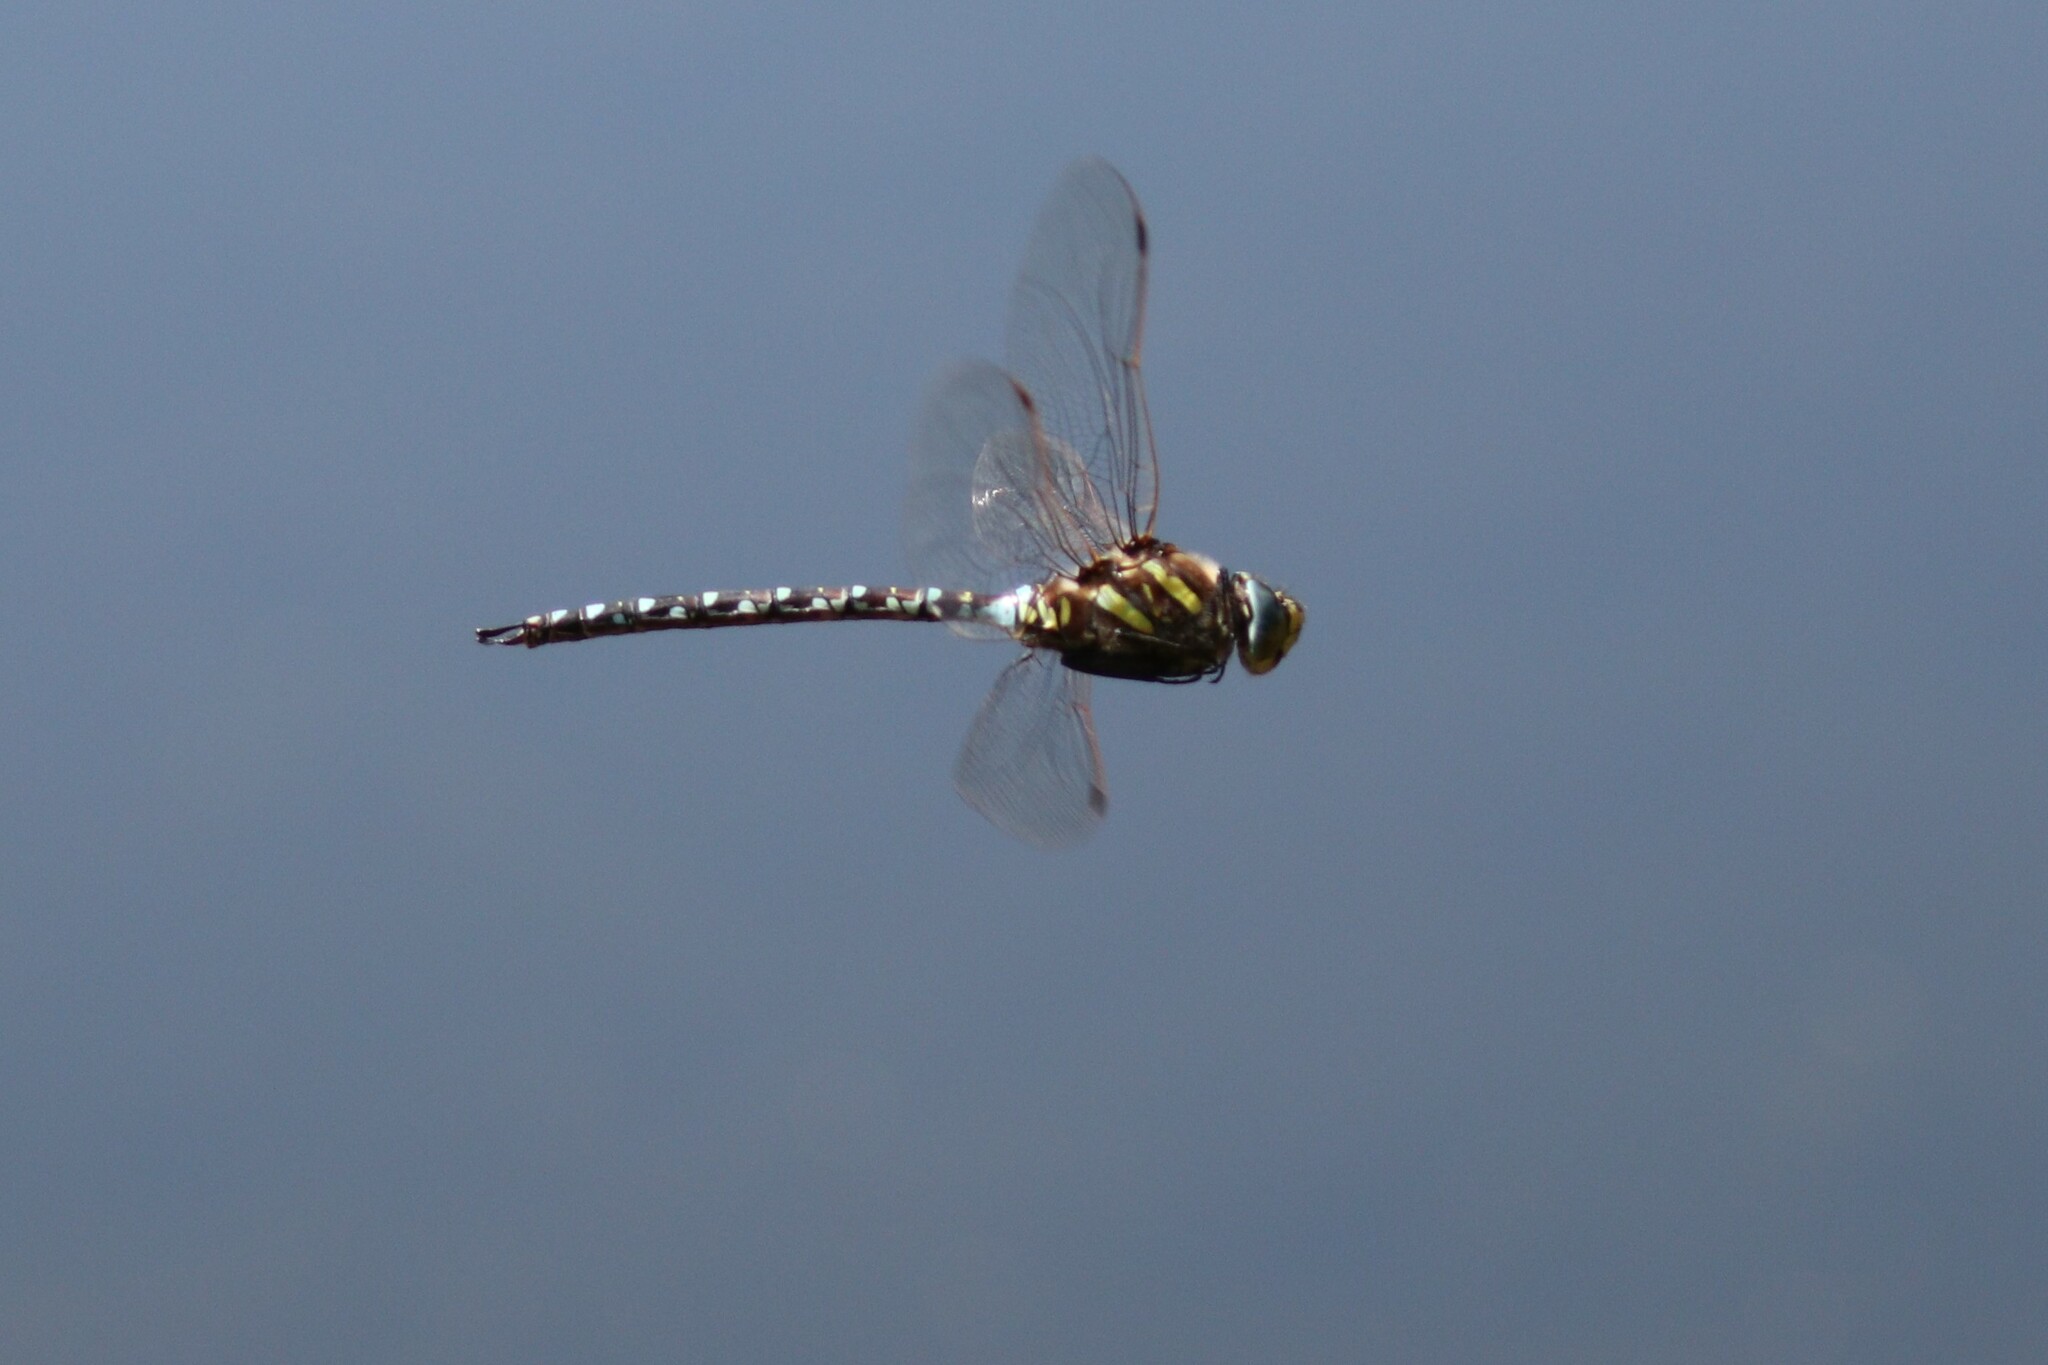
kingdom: Animalia
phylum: Arthropoda
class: Insecta
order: Odonata
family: Aeshnidae
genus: Aeshna
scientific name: Aeshna juncea
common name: Moorland hawker
